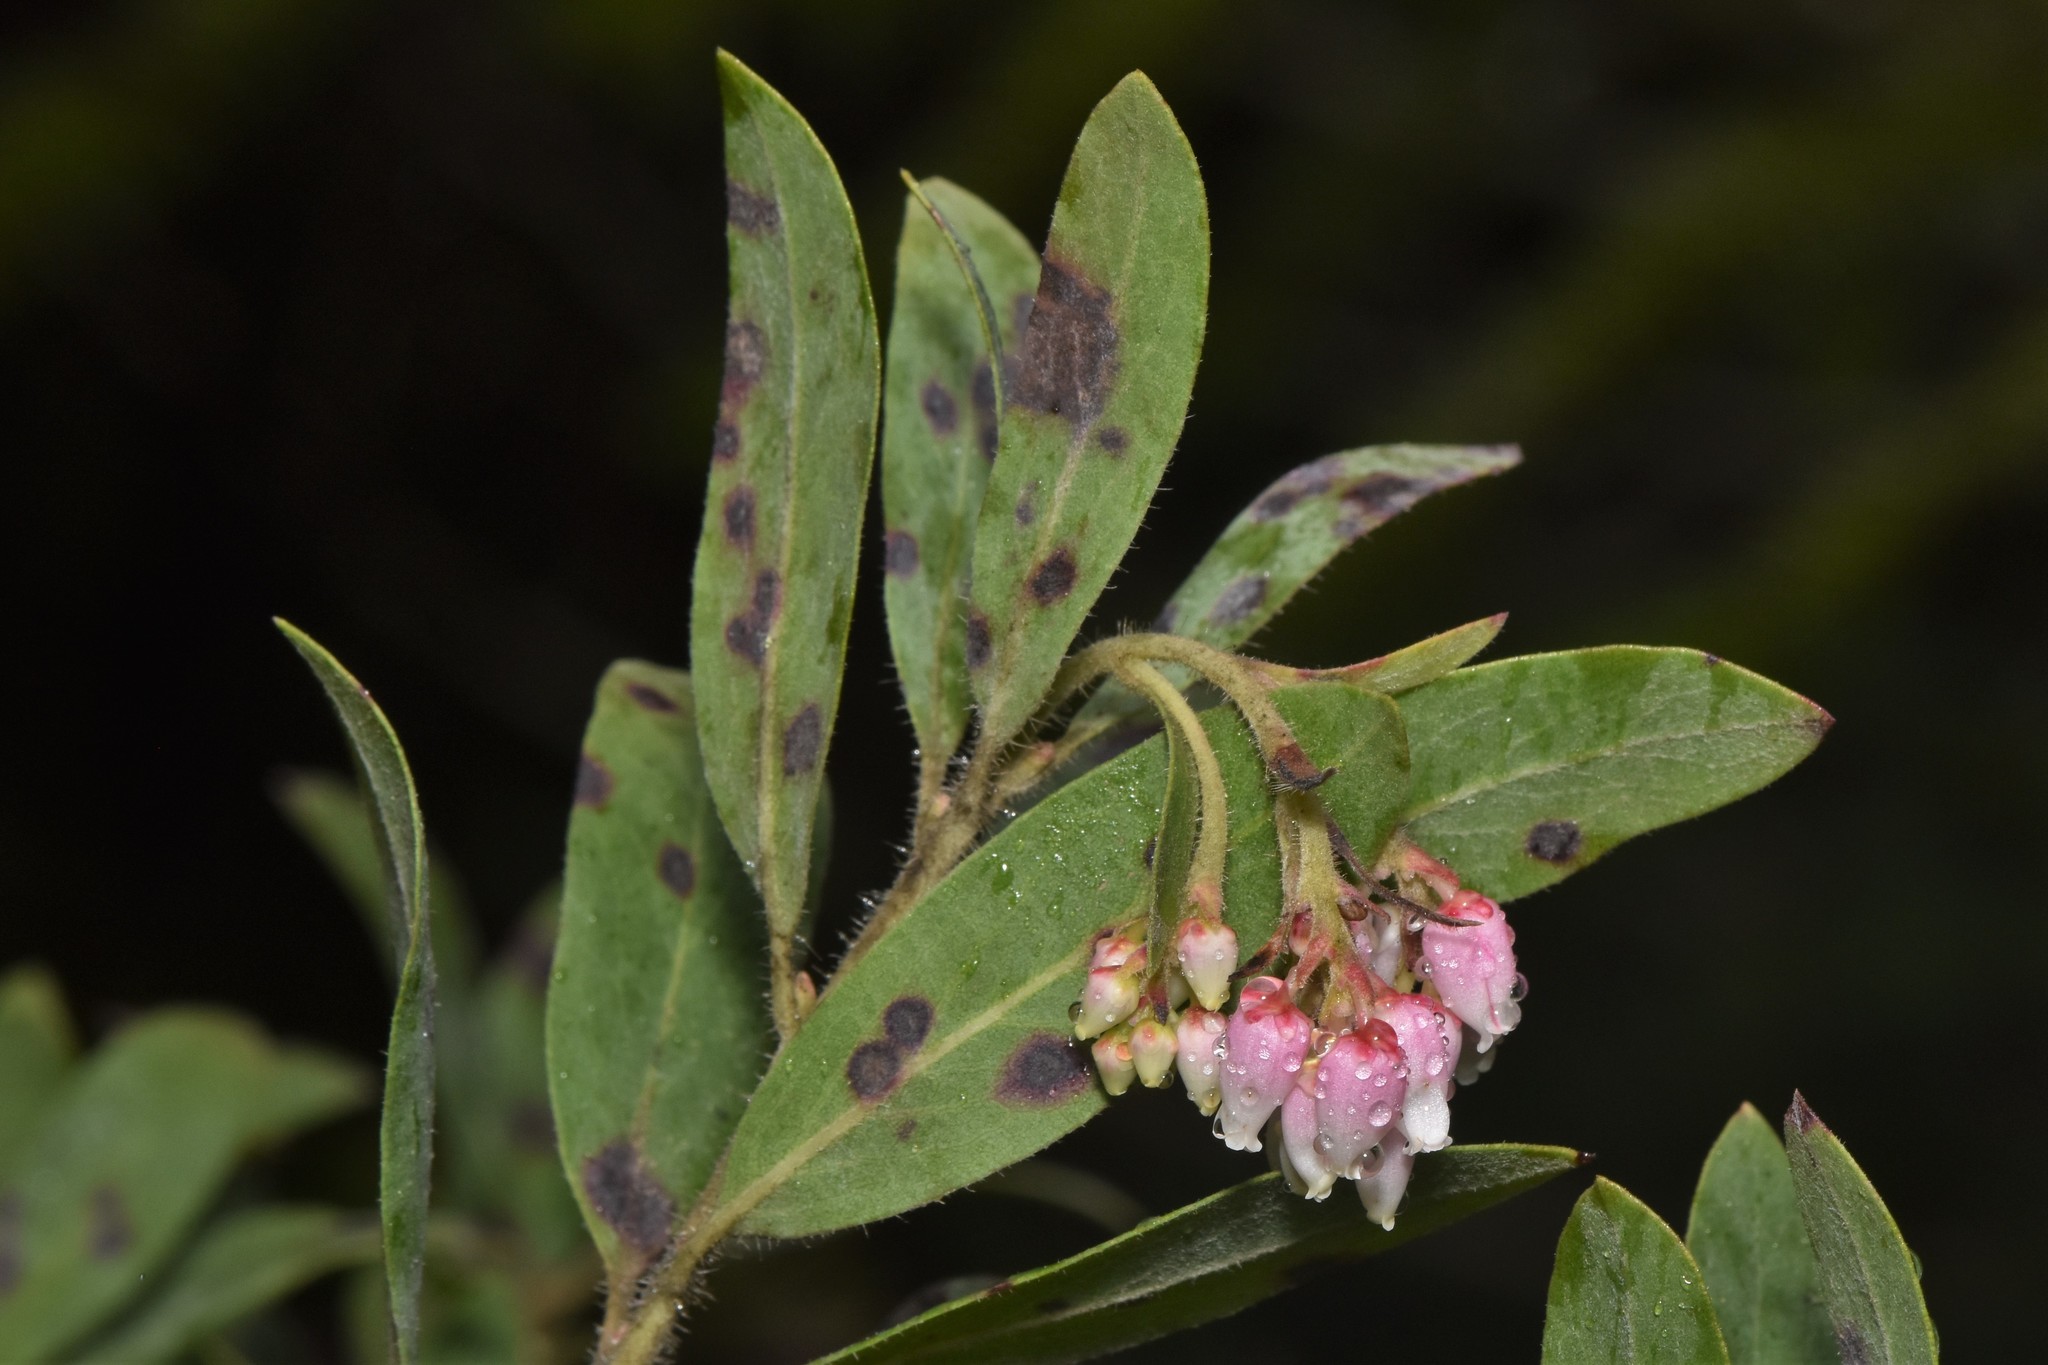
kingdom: Plantae
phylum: Tracheophyta
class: Magnoliopsida
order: Ericales
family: Ericaceae
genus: Arctostaphylos
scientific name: Arctostaphylos columbiana
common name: Bristly bearberry
